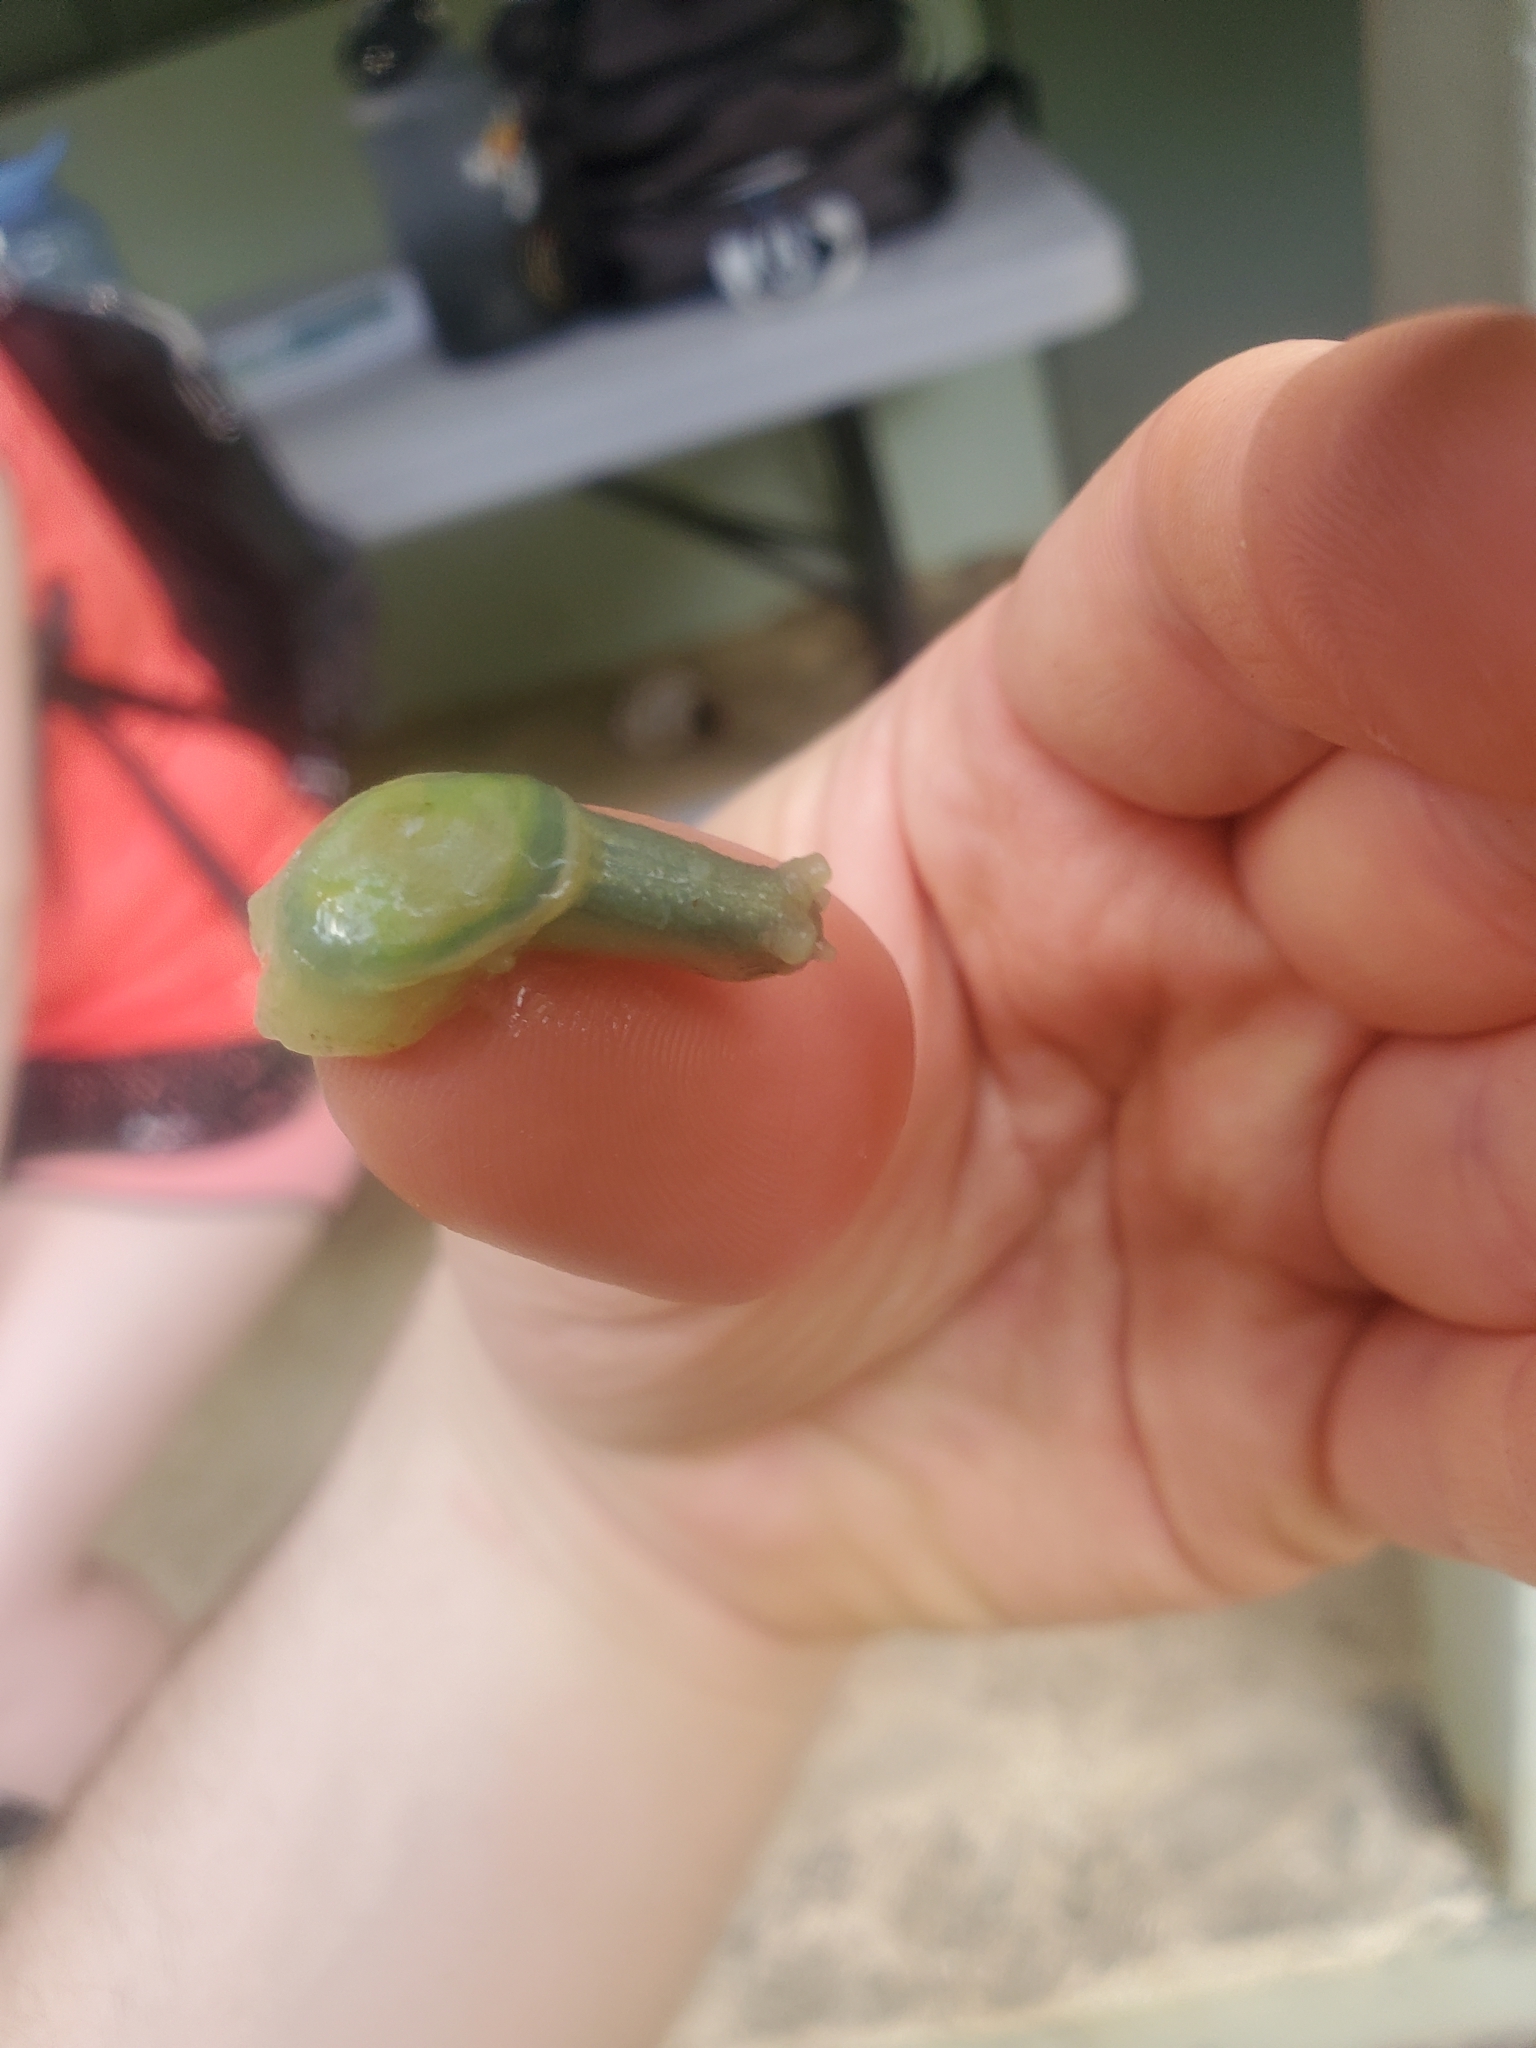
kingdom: Animalia
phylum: Mollusca
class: Gastropoda
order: Stylommatophora
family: Amphibulimidae
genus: Gaeotis
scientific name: Gaeotis nigrolineata
